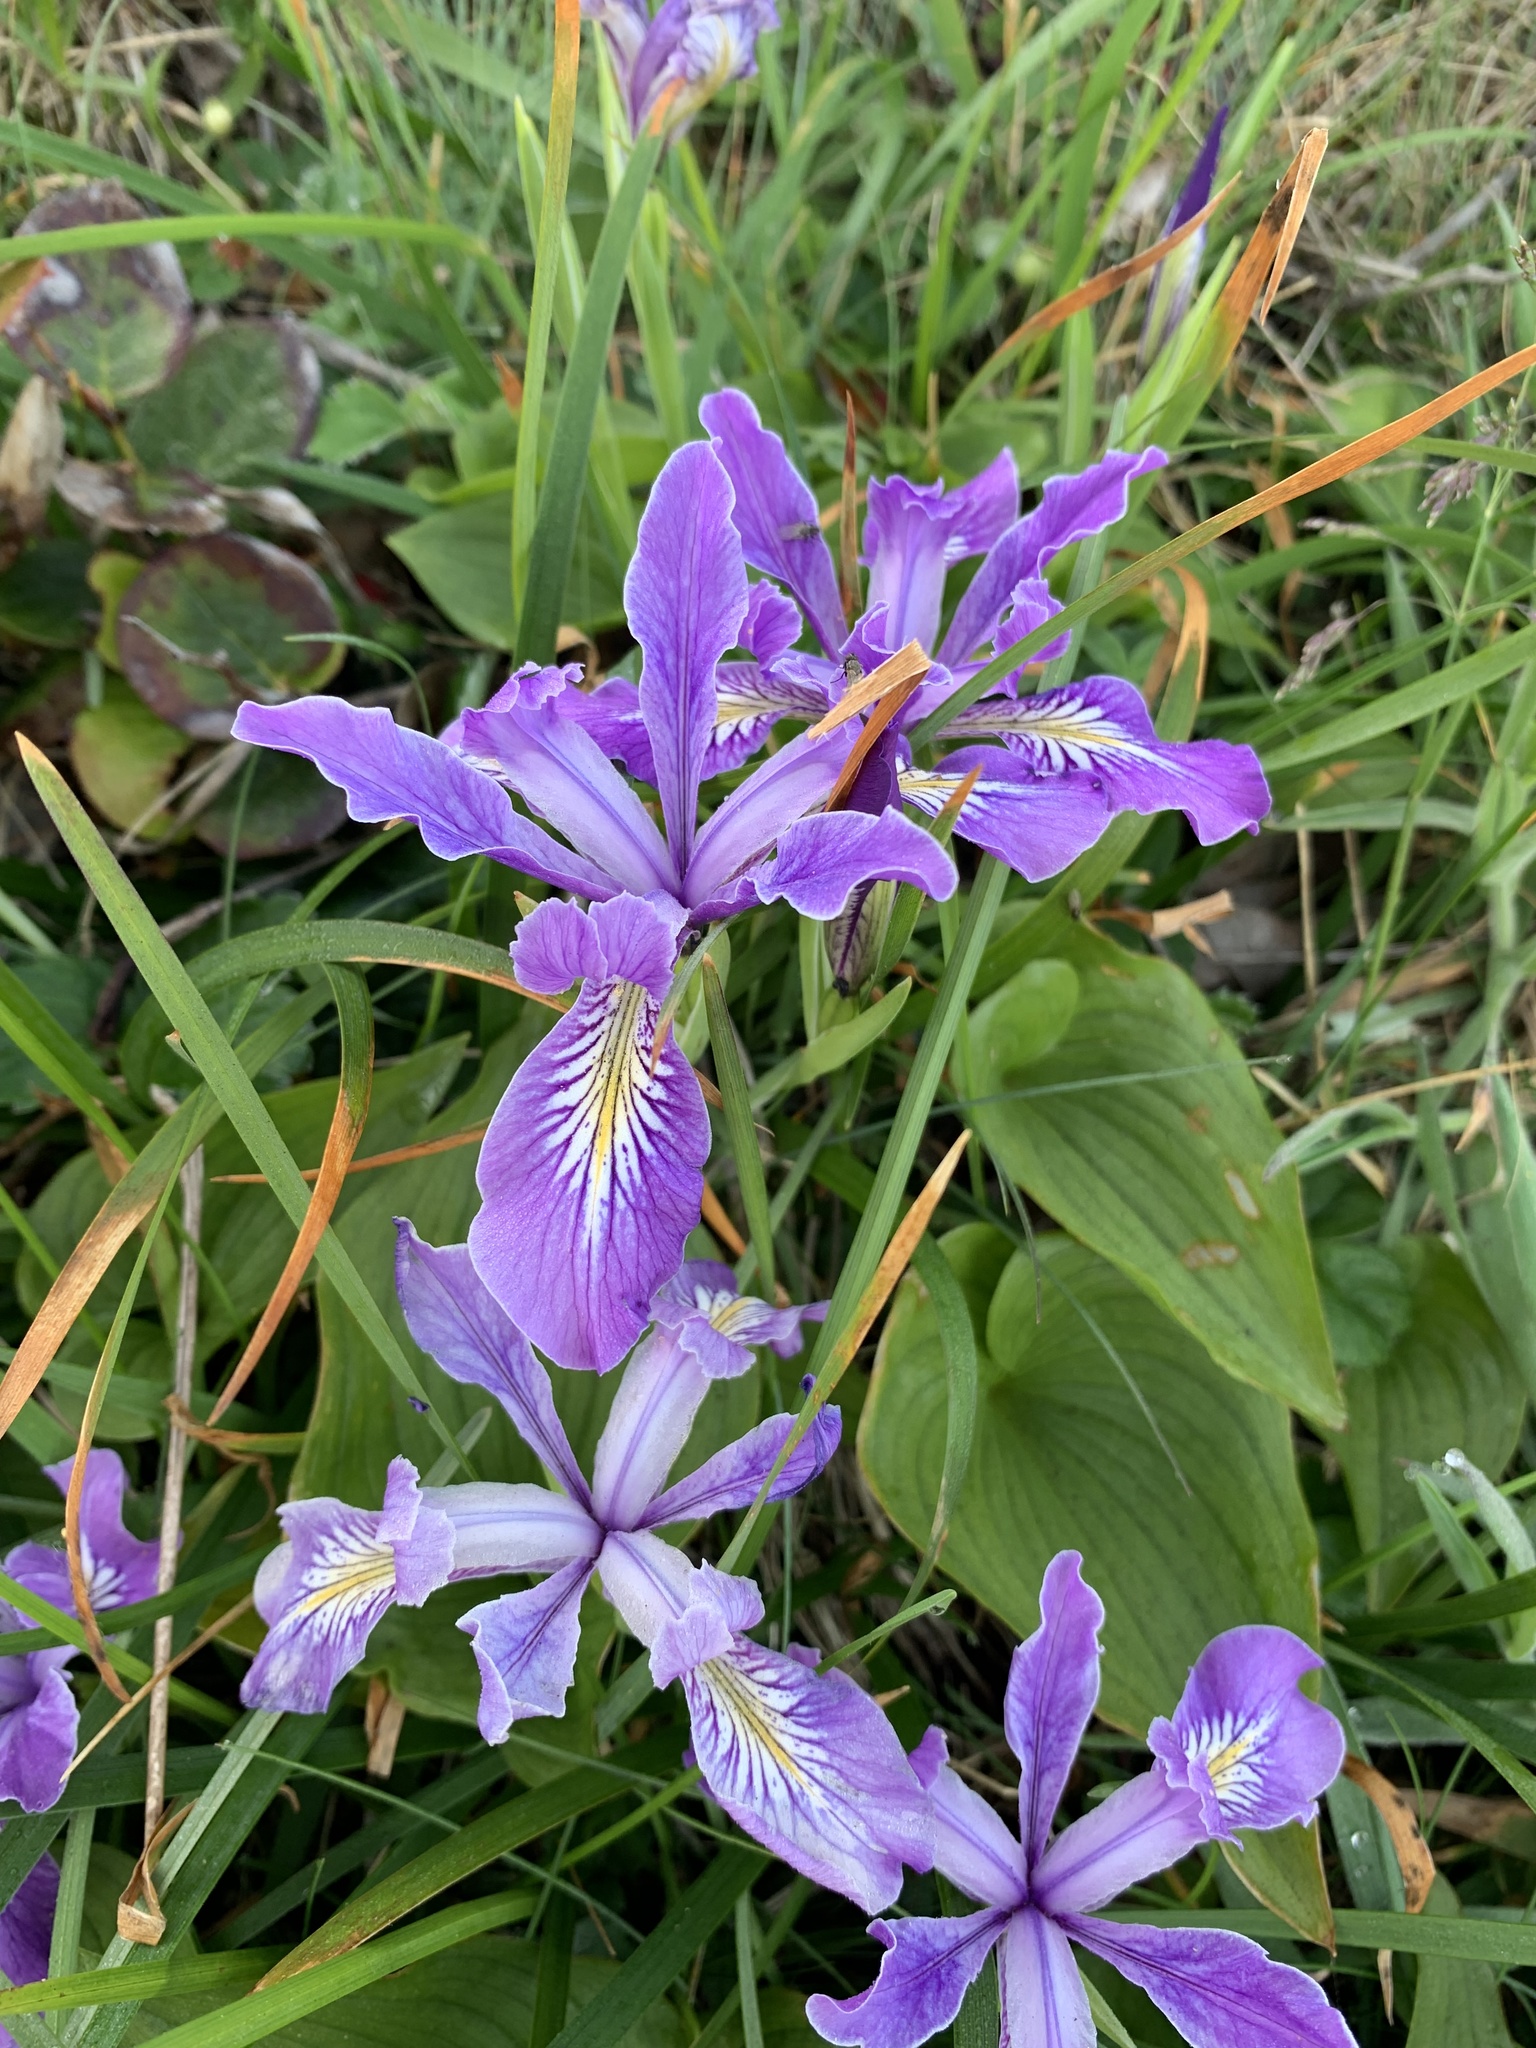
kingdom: Plantae
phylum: Tracheophyta
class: Liliopsida
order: Asparagales
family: Iridaceae
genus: Iris
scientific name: Iris tenax
